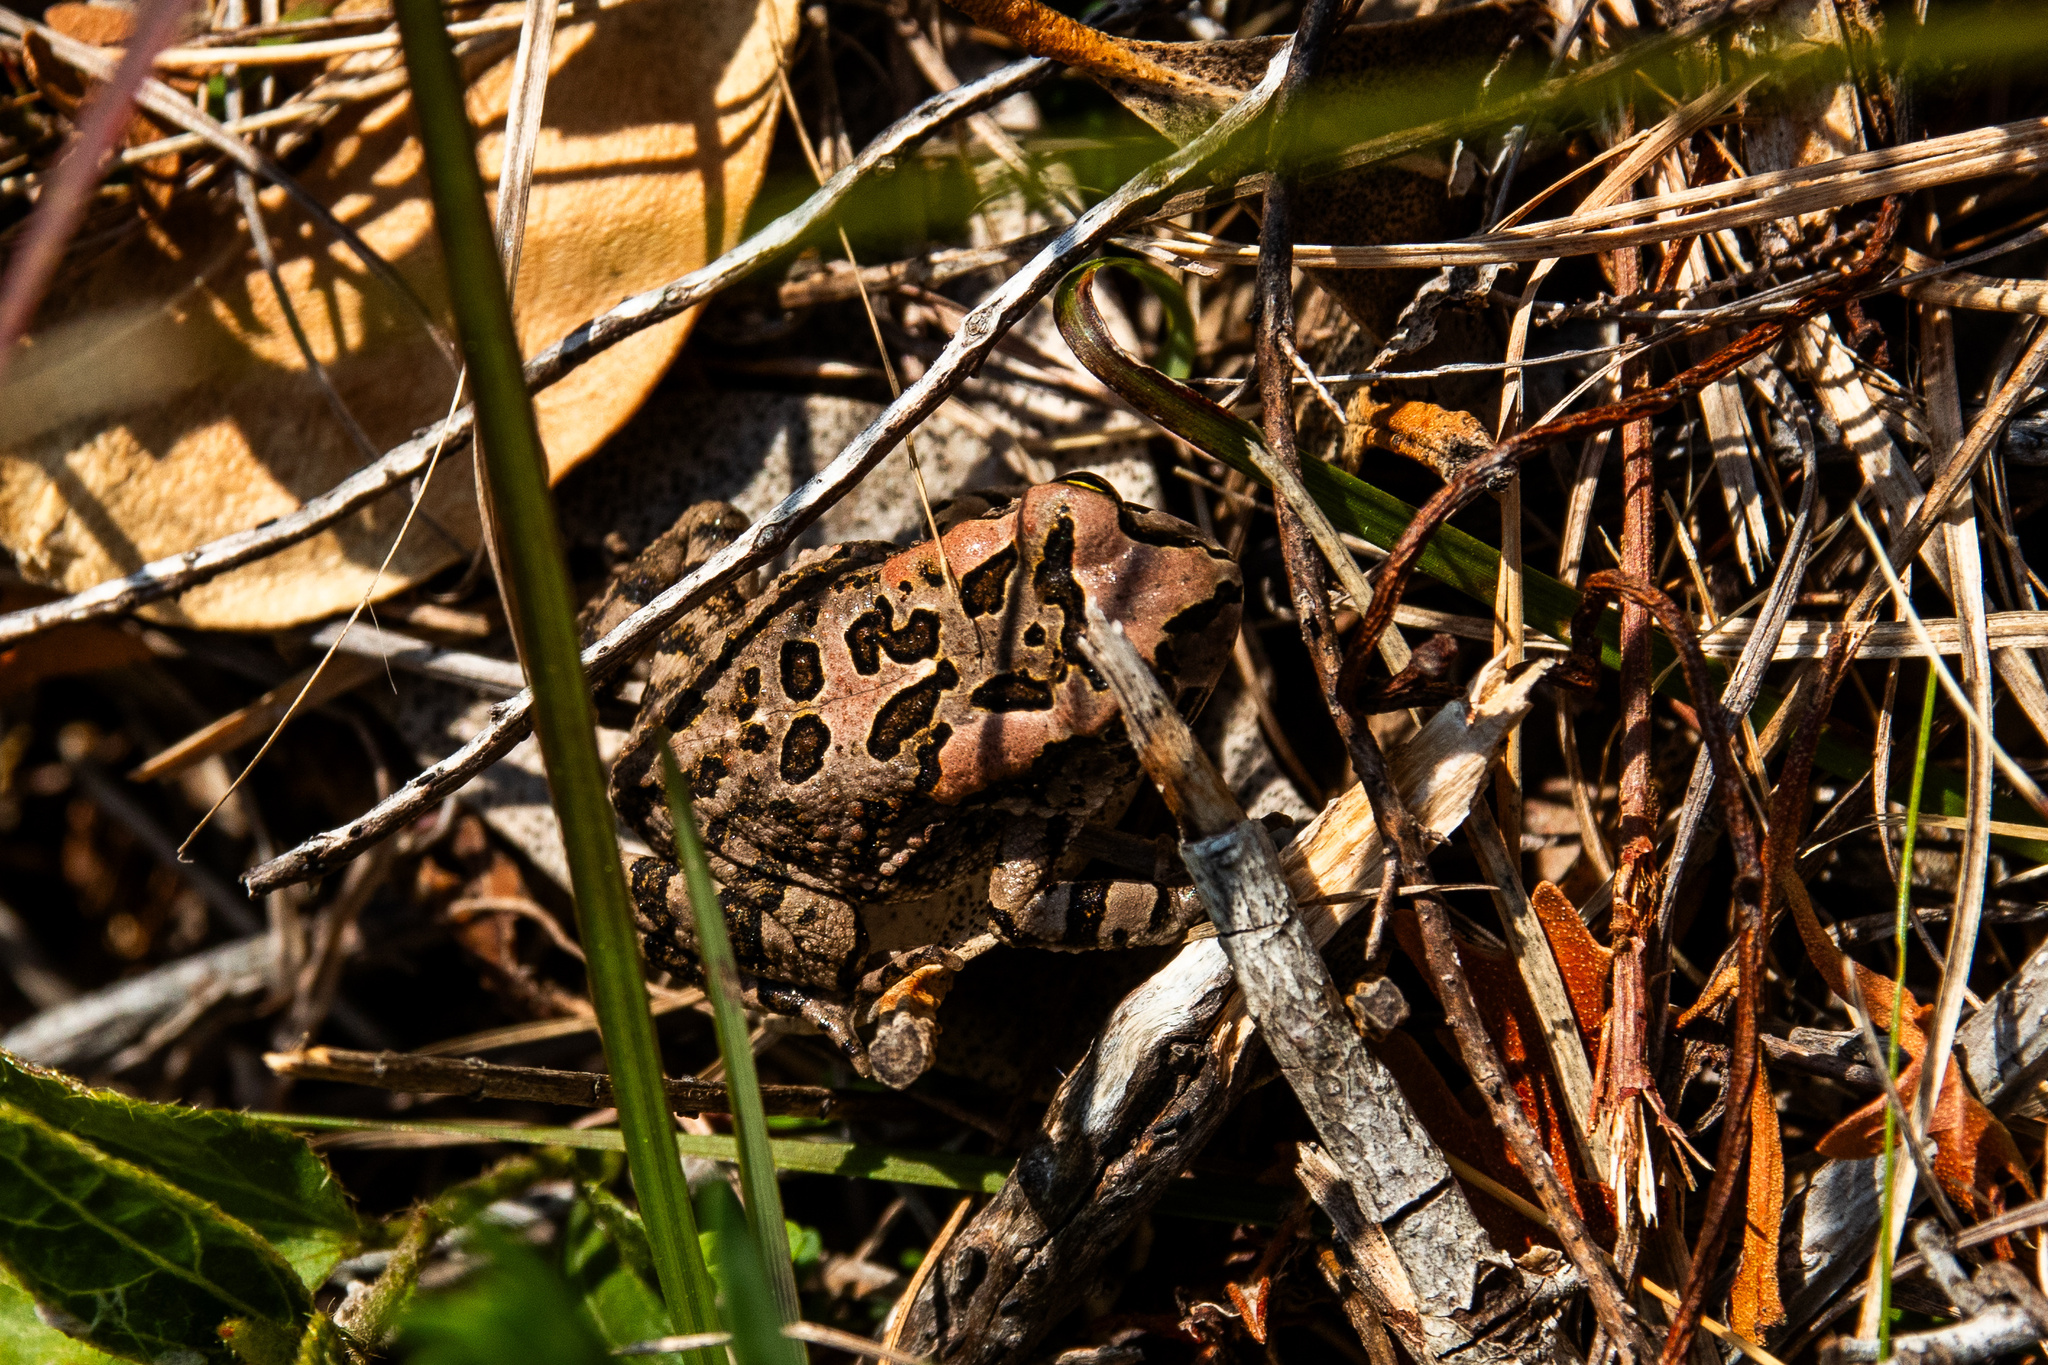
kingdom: Animalia
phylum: Chordata
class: Amphibia
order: Anura
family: Bufonidae
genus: Sclerophrys
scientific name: Sclerophrys capensis
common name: Ranger’s toad
